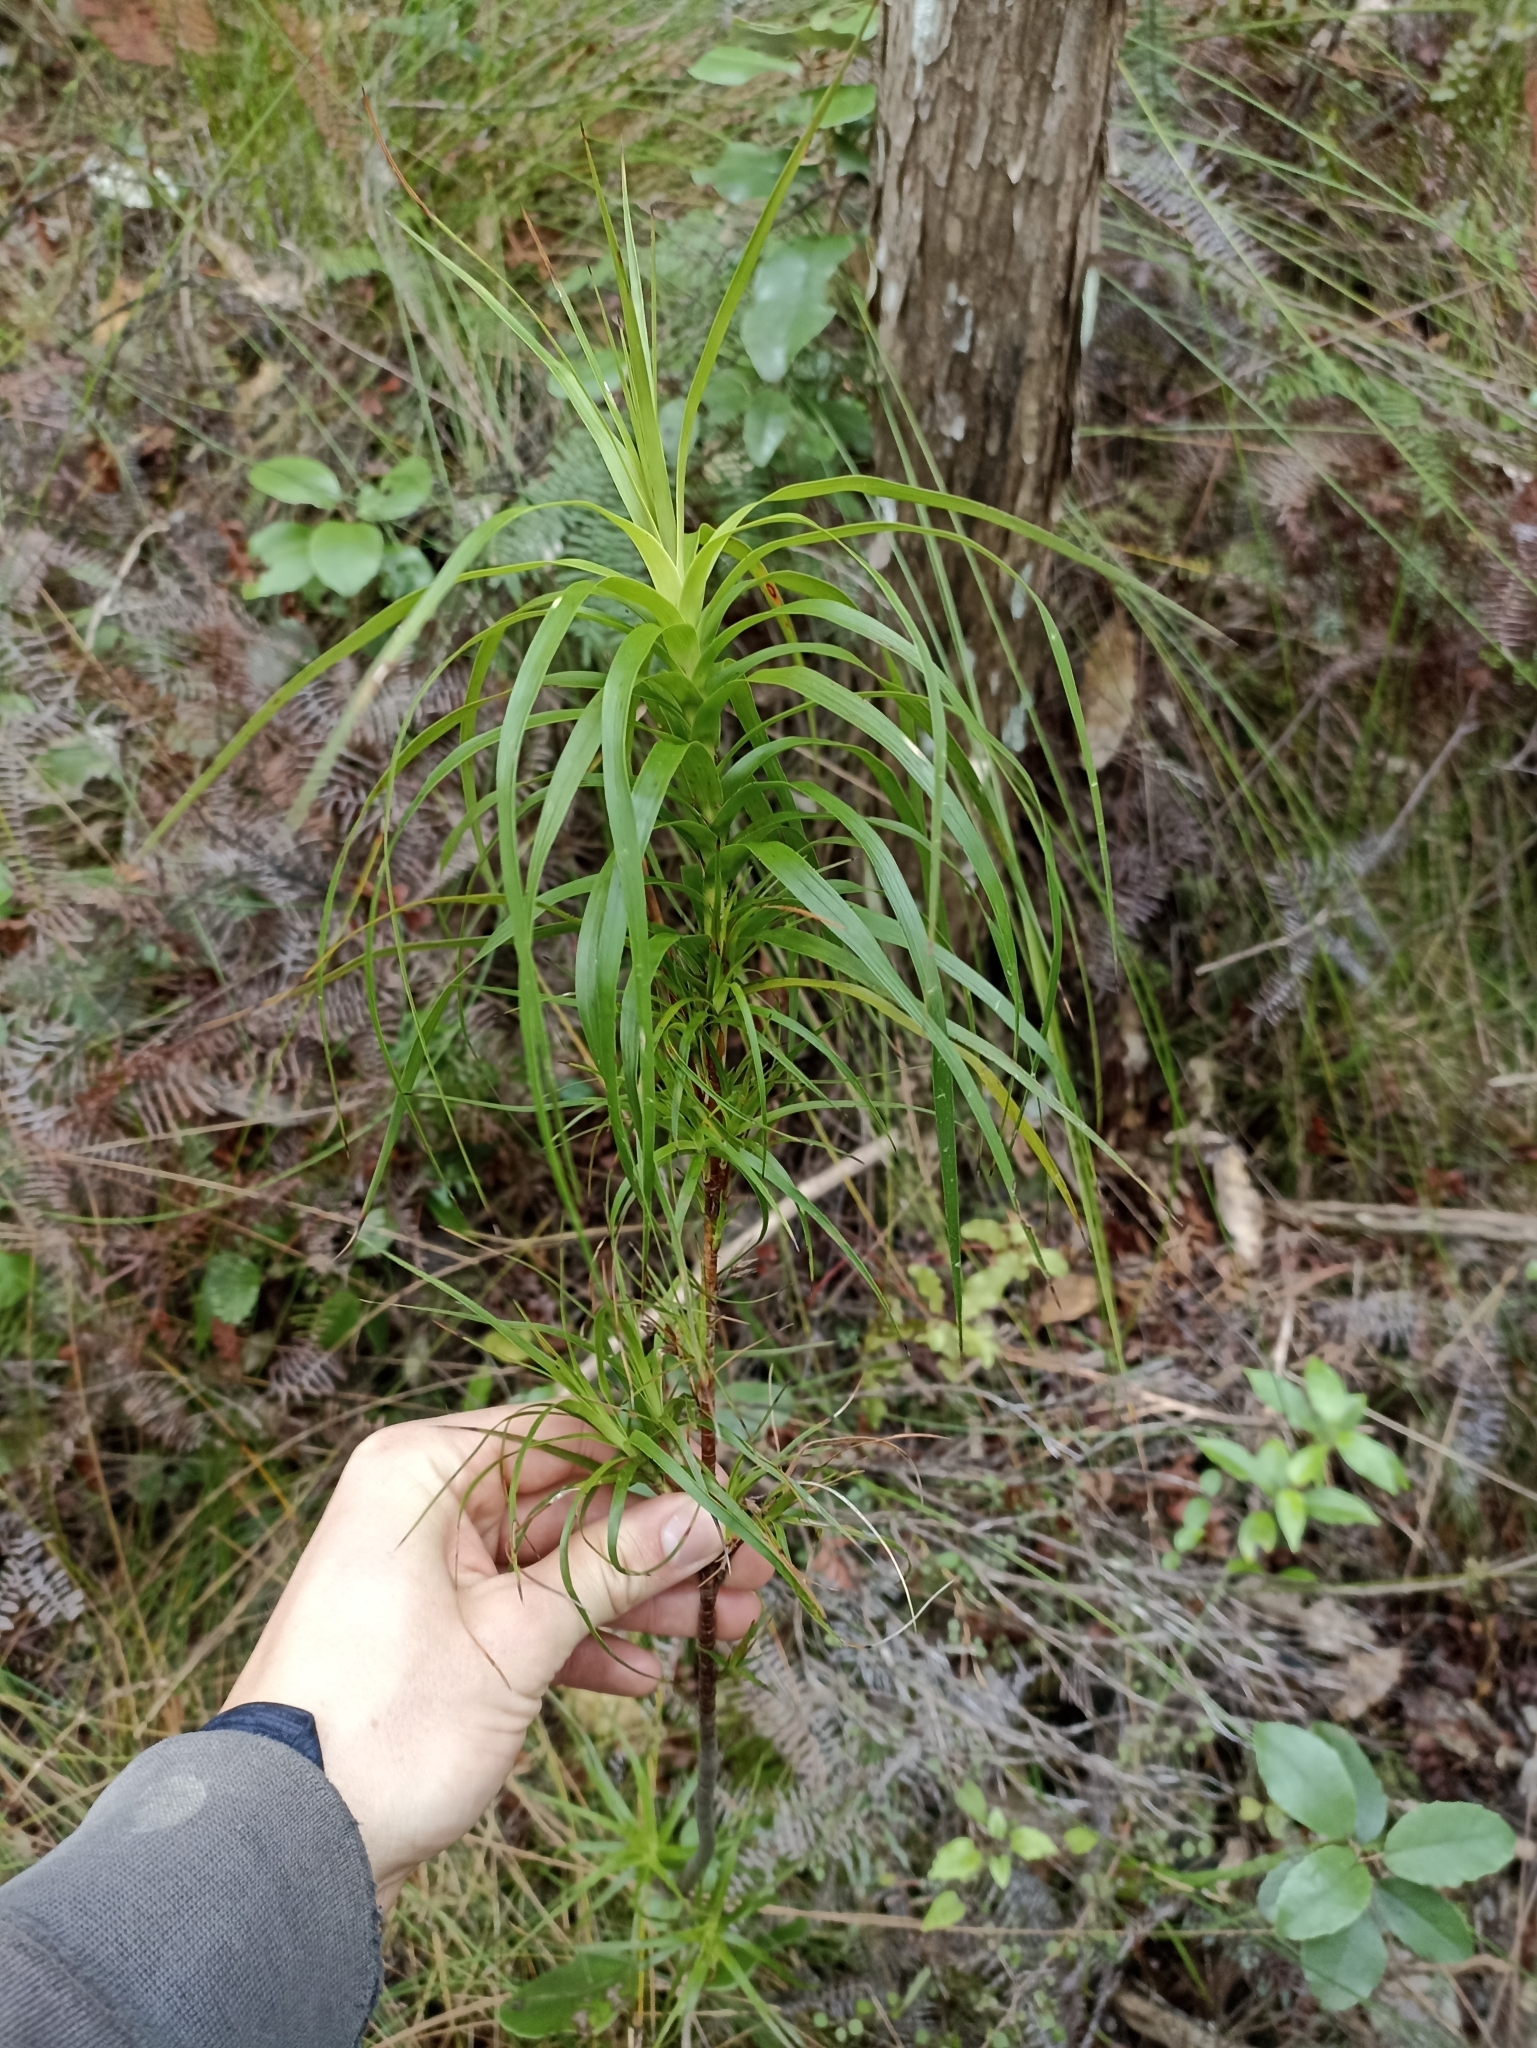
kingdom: Plantae
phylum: Tracheophyta
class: Magnoliopsida
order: Ericales
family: Ericaceae
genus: Dracophyllum
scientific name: Dracophyllum sinclairii
